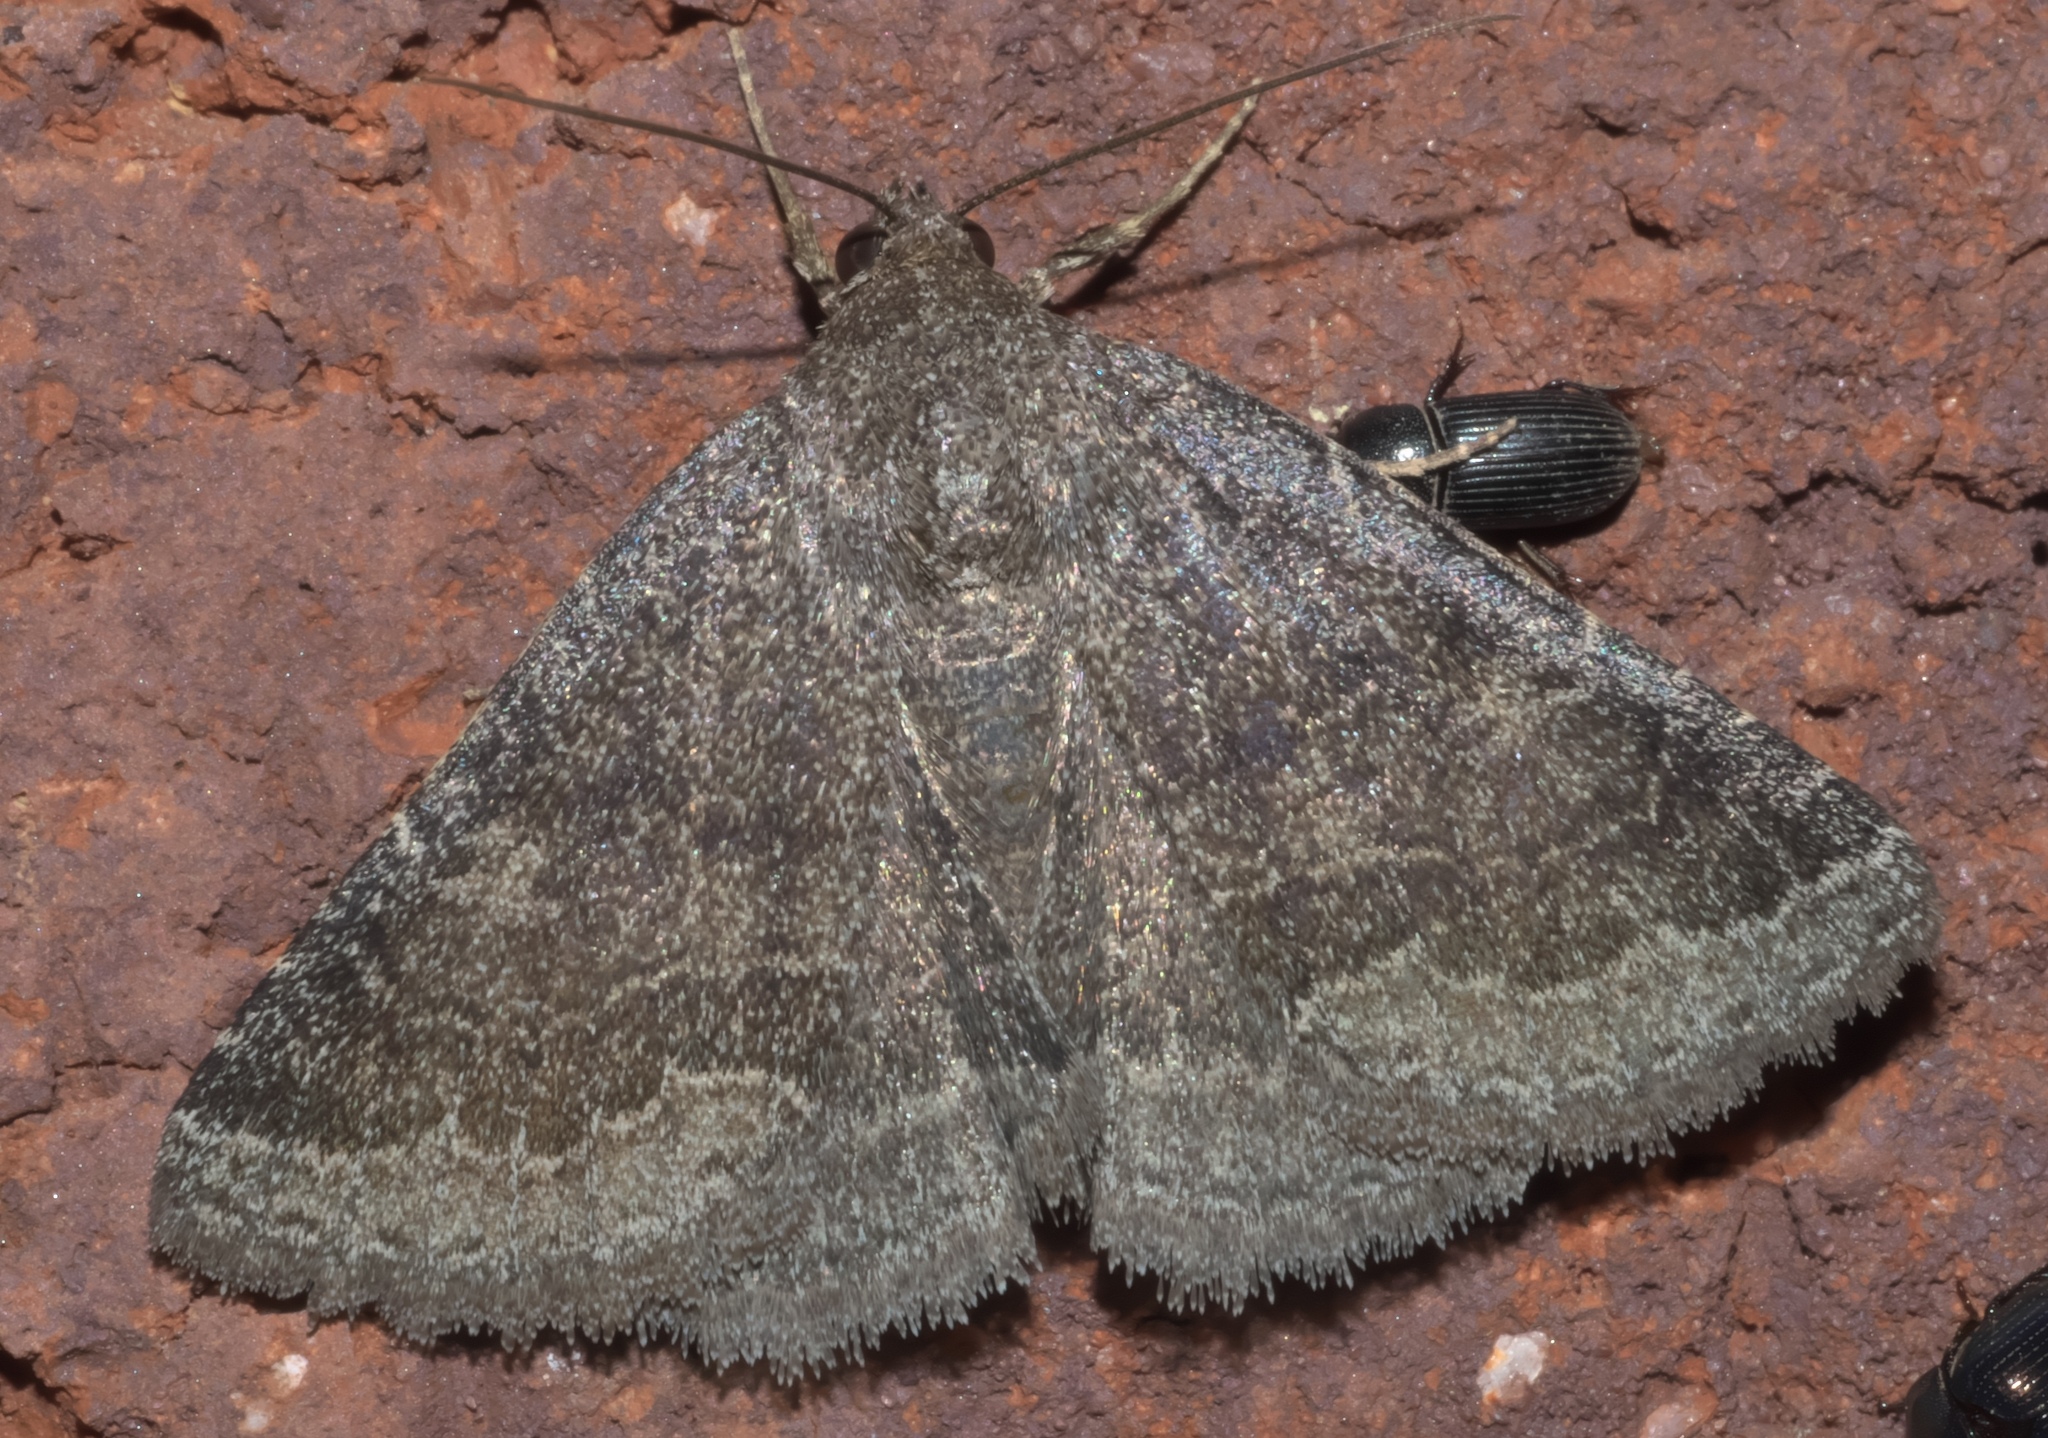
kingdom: Animalia
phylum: Arthropoda
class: Insecta
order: Lepidoptera
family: Erebidae
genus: Matigramma
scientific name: Matigramma pulverilinea
